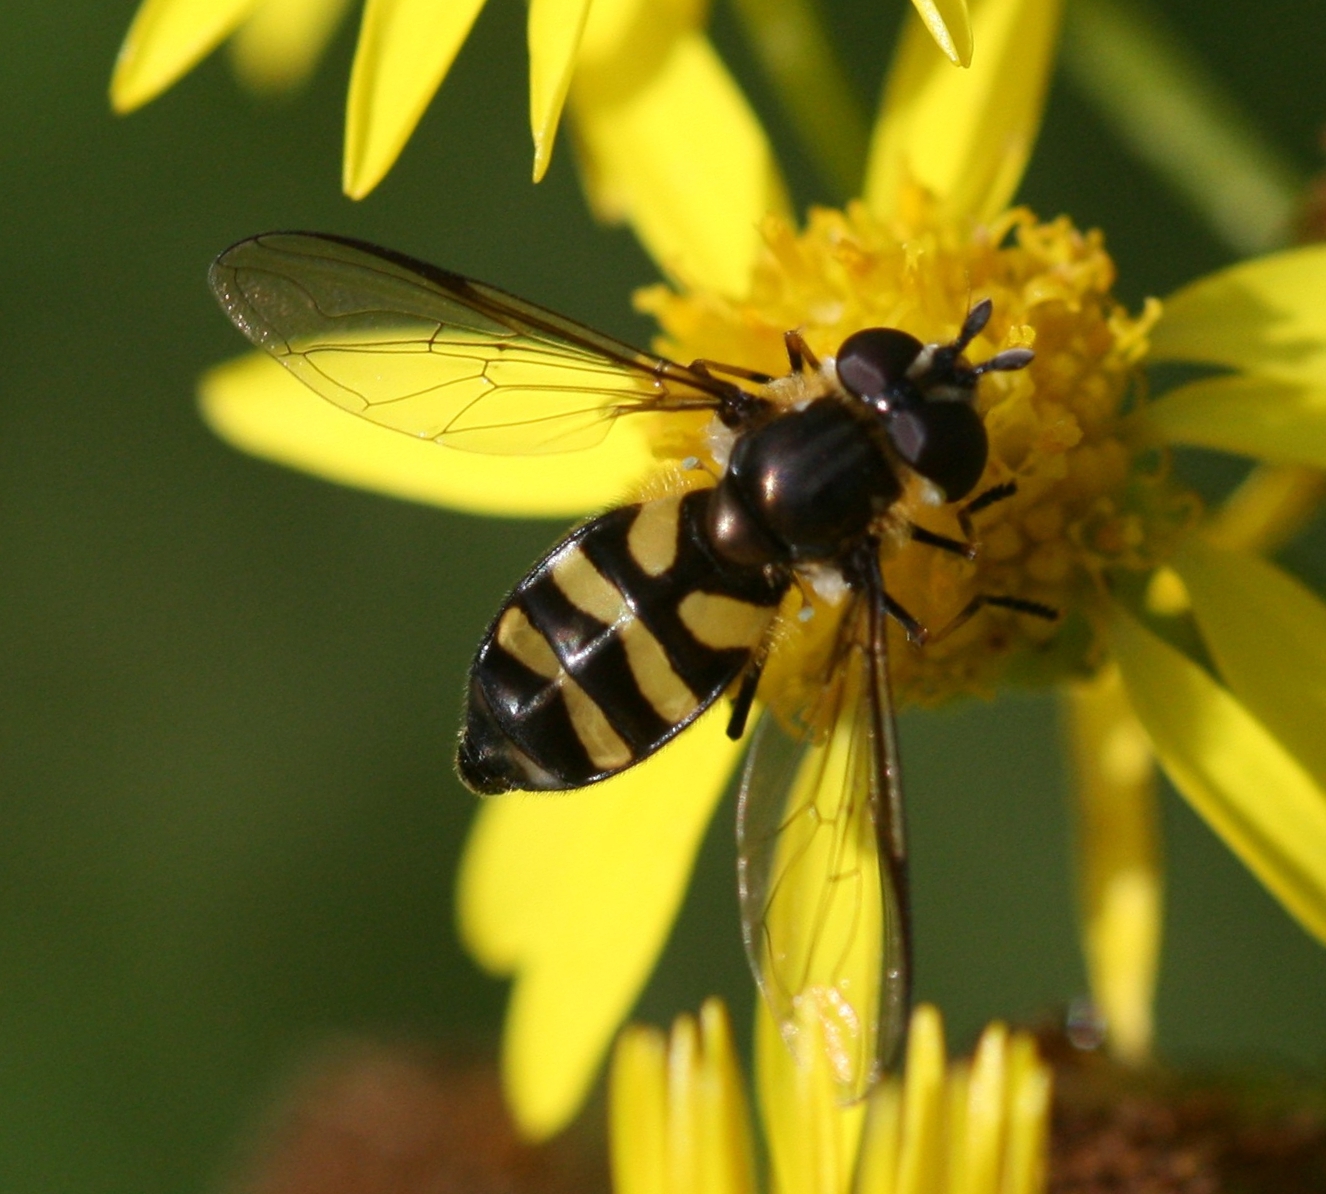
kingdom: Animalia
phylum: Arthropoda
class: Insecta
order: Diptera
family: Syrphidae
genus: Didea
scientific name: Didea fasciata
